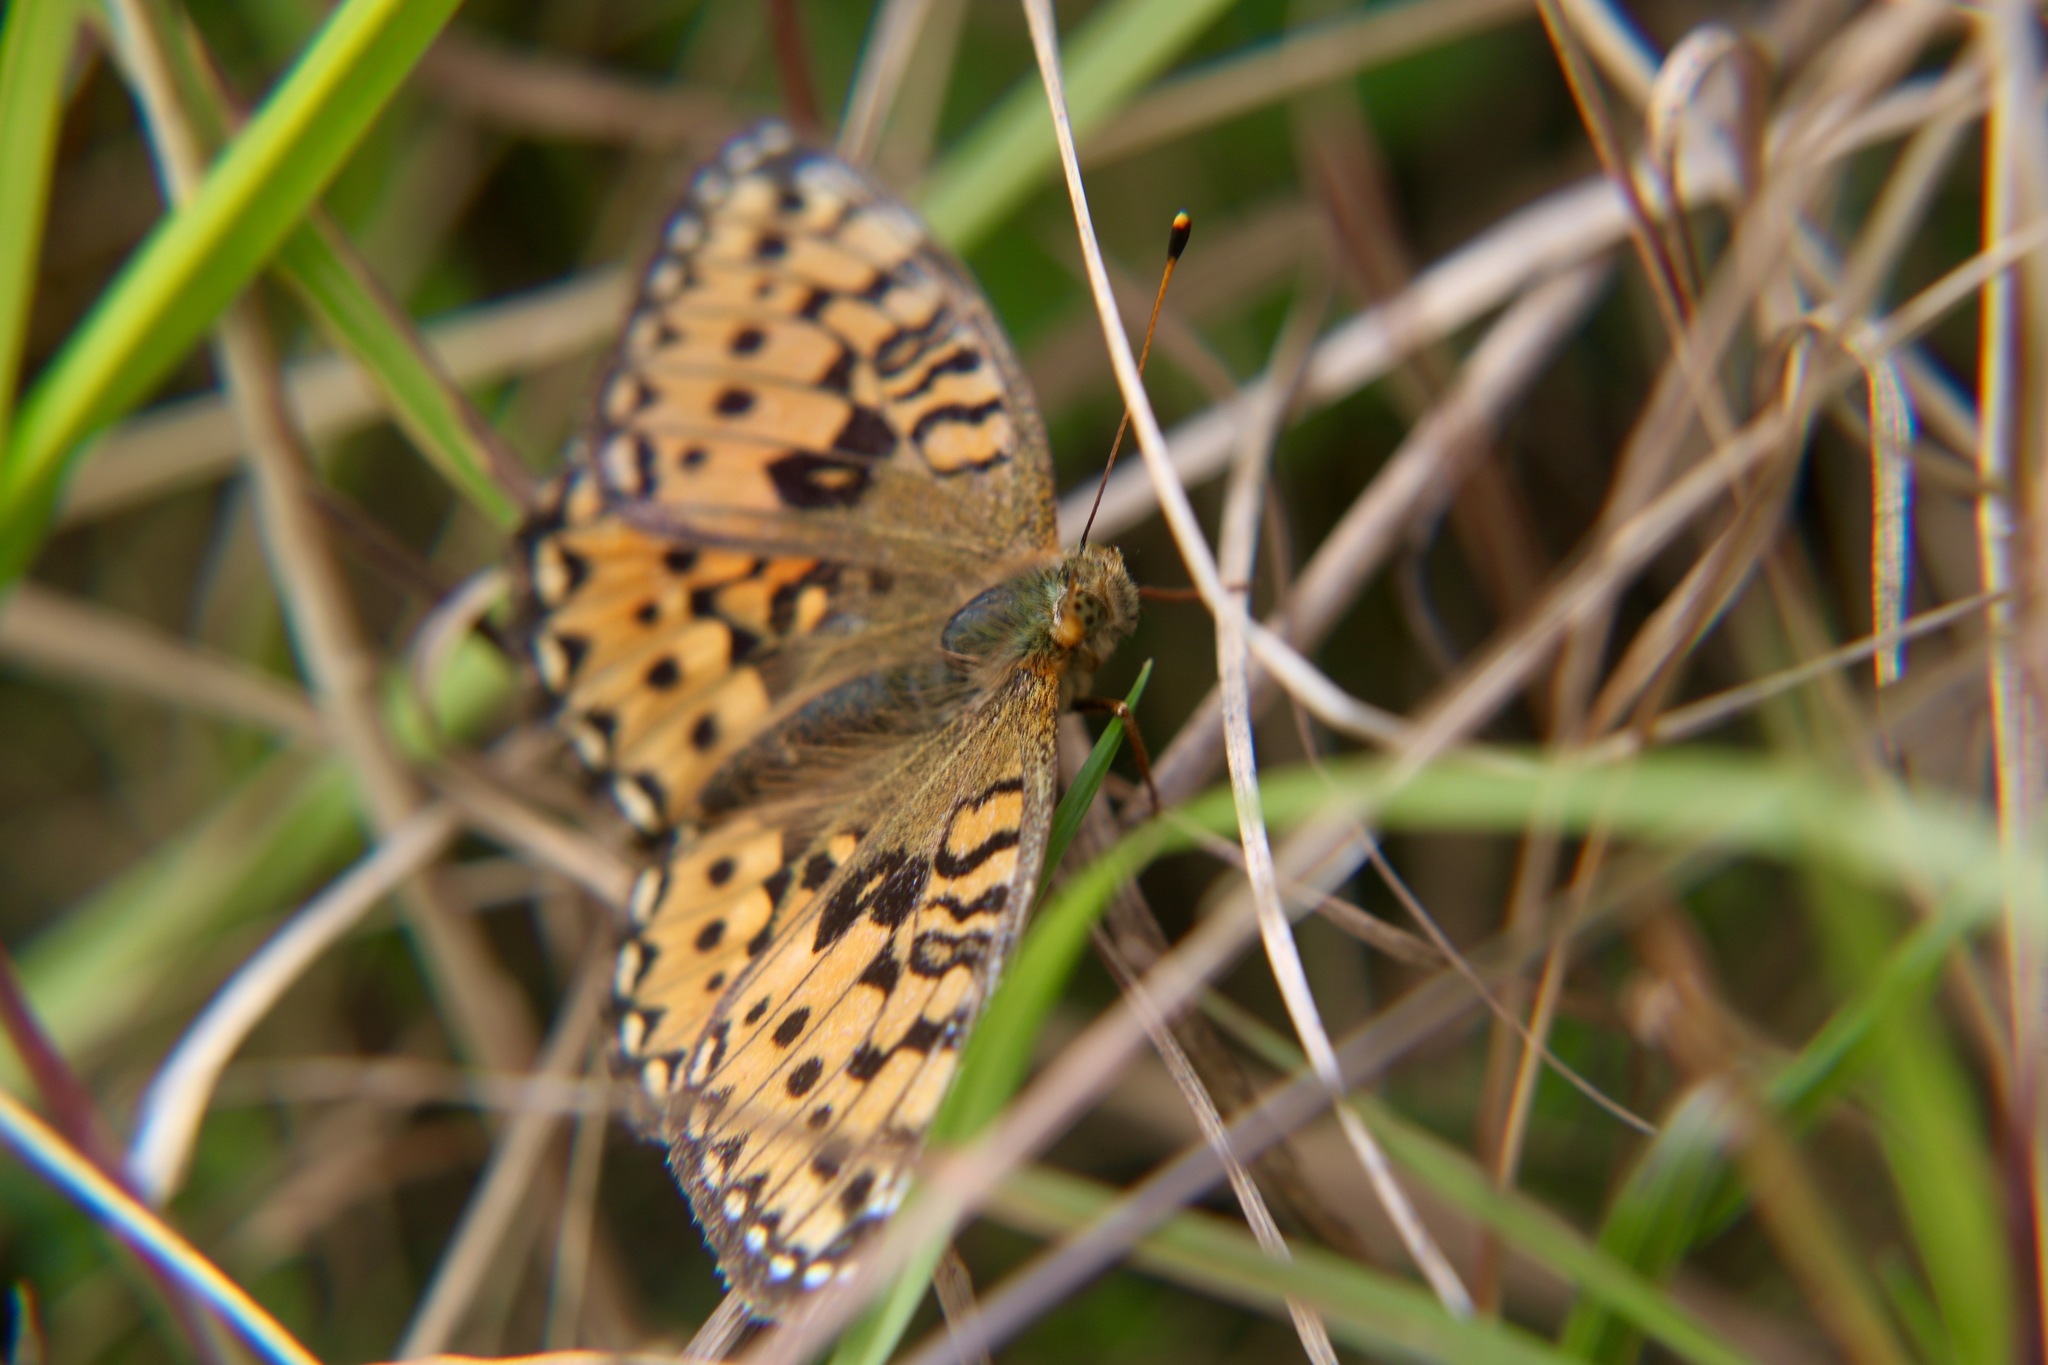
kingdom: Animalia
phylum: Arthropoda
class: Insecta
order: Lepidoptera
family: Nymphalidae
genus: Speyeria
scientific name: Speyeria aglaja
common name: Dark green fritillary
